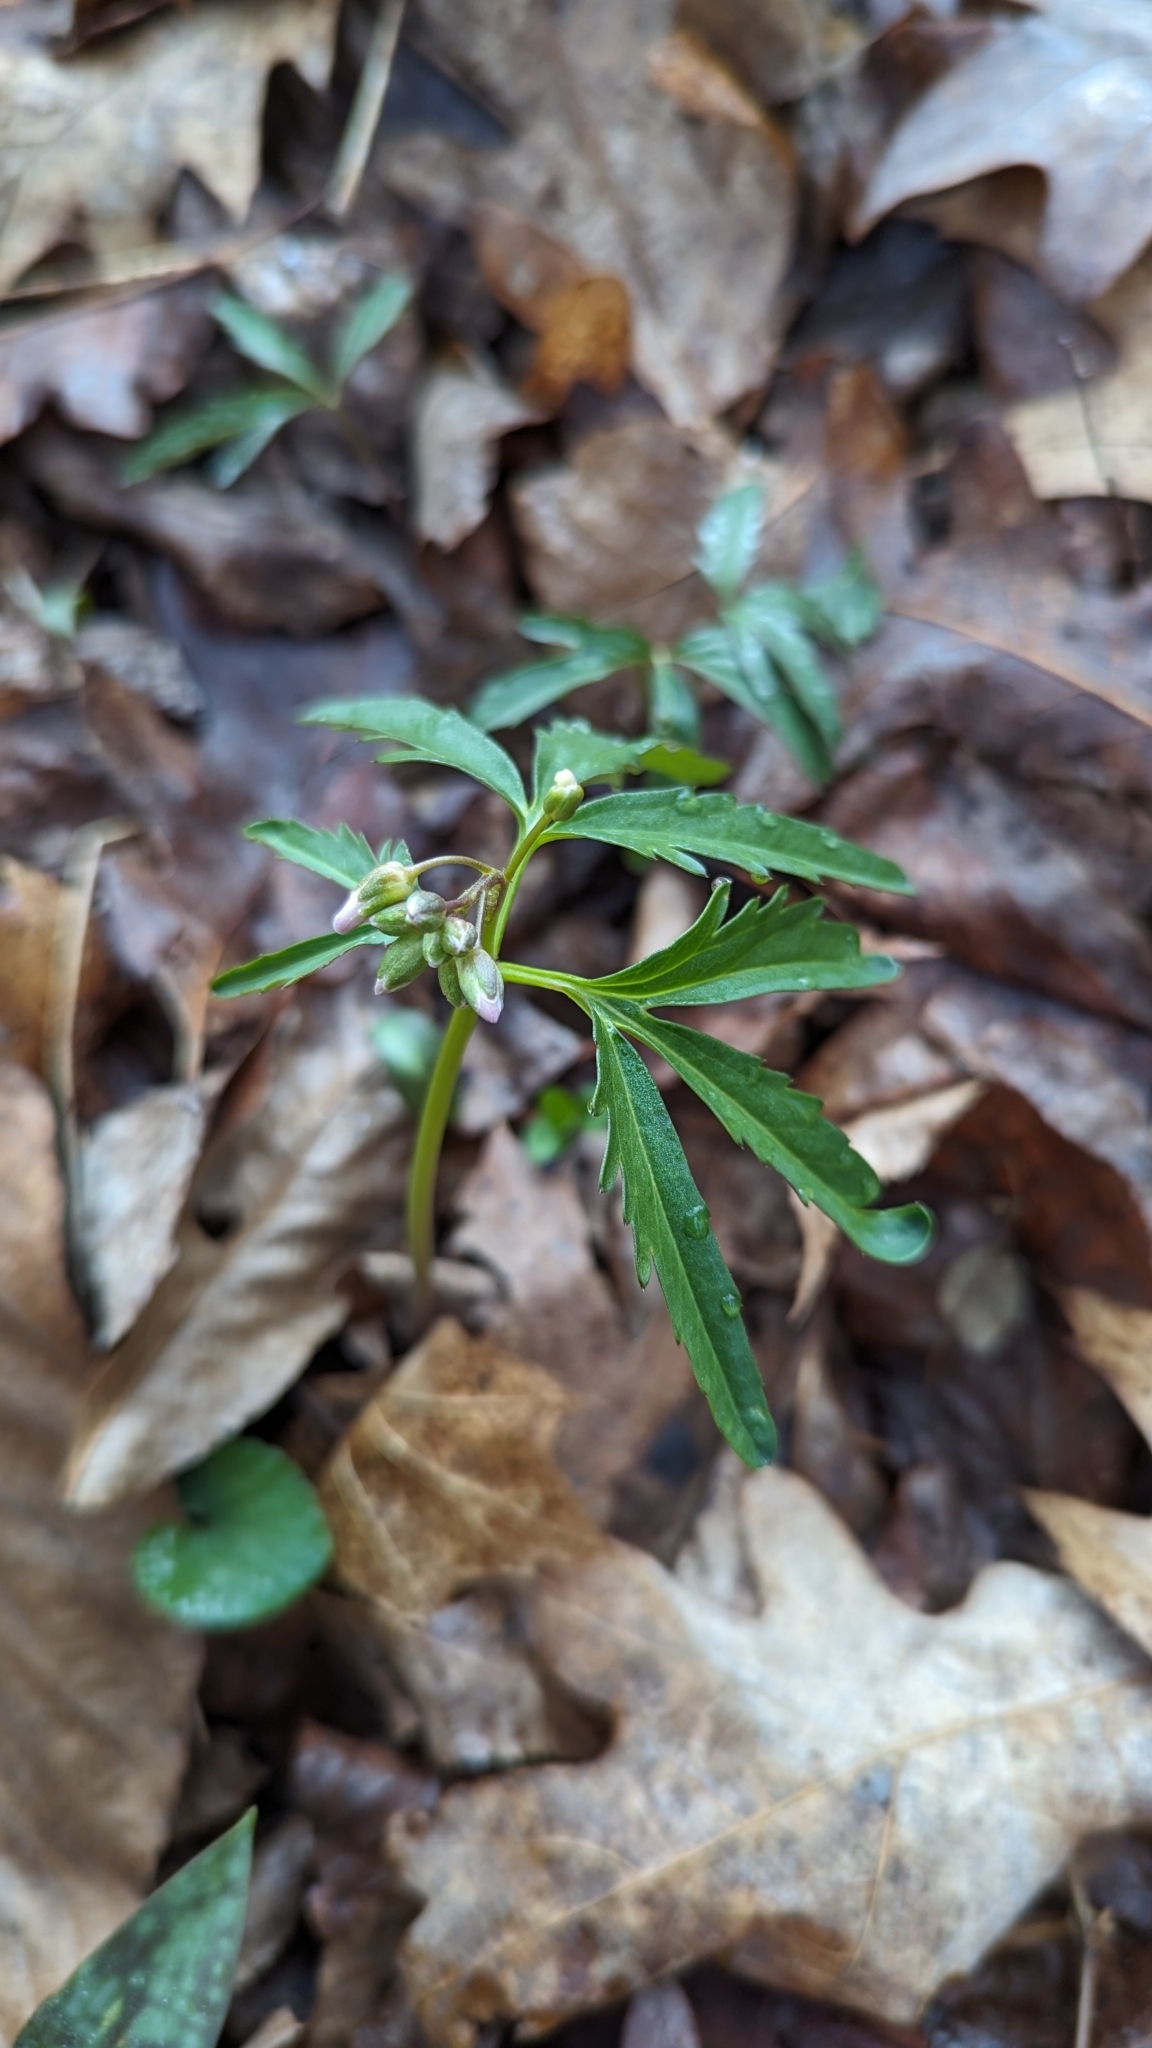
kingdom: Plantae
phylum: Tracheophyta
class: Magnoliopsida
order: Brassicales
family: Brassicaceae
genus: Cardamine
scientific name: Cardamine concatenata
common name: Cut-leaf toothcup
